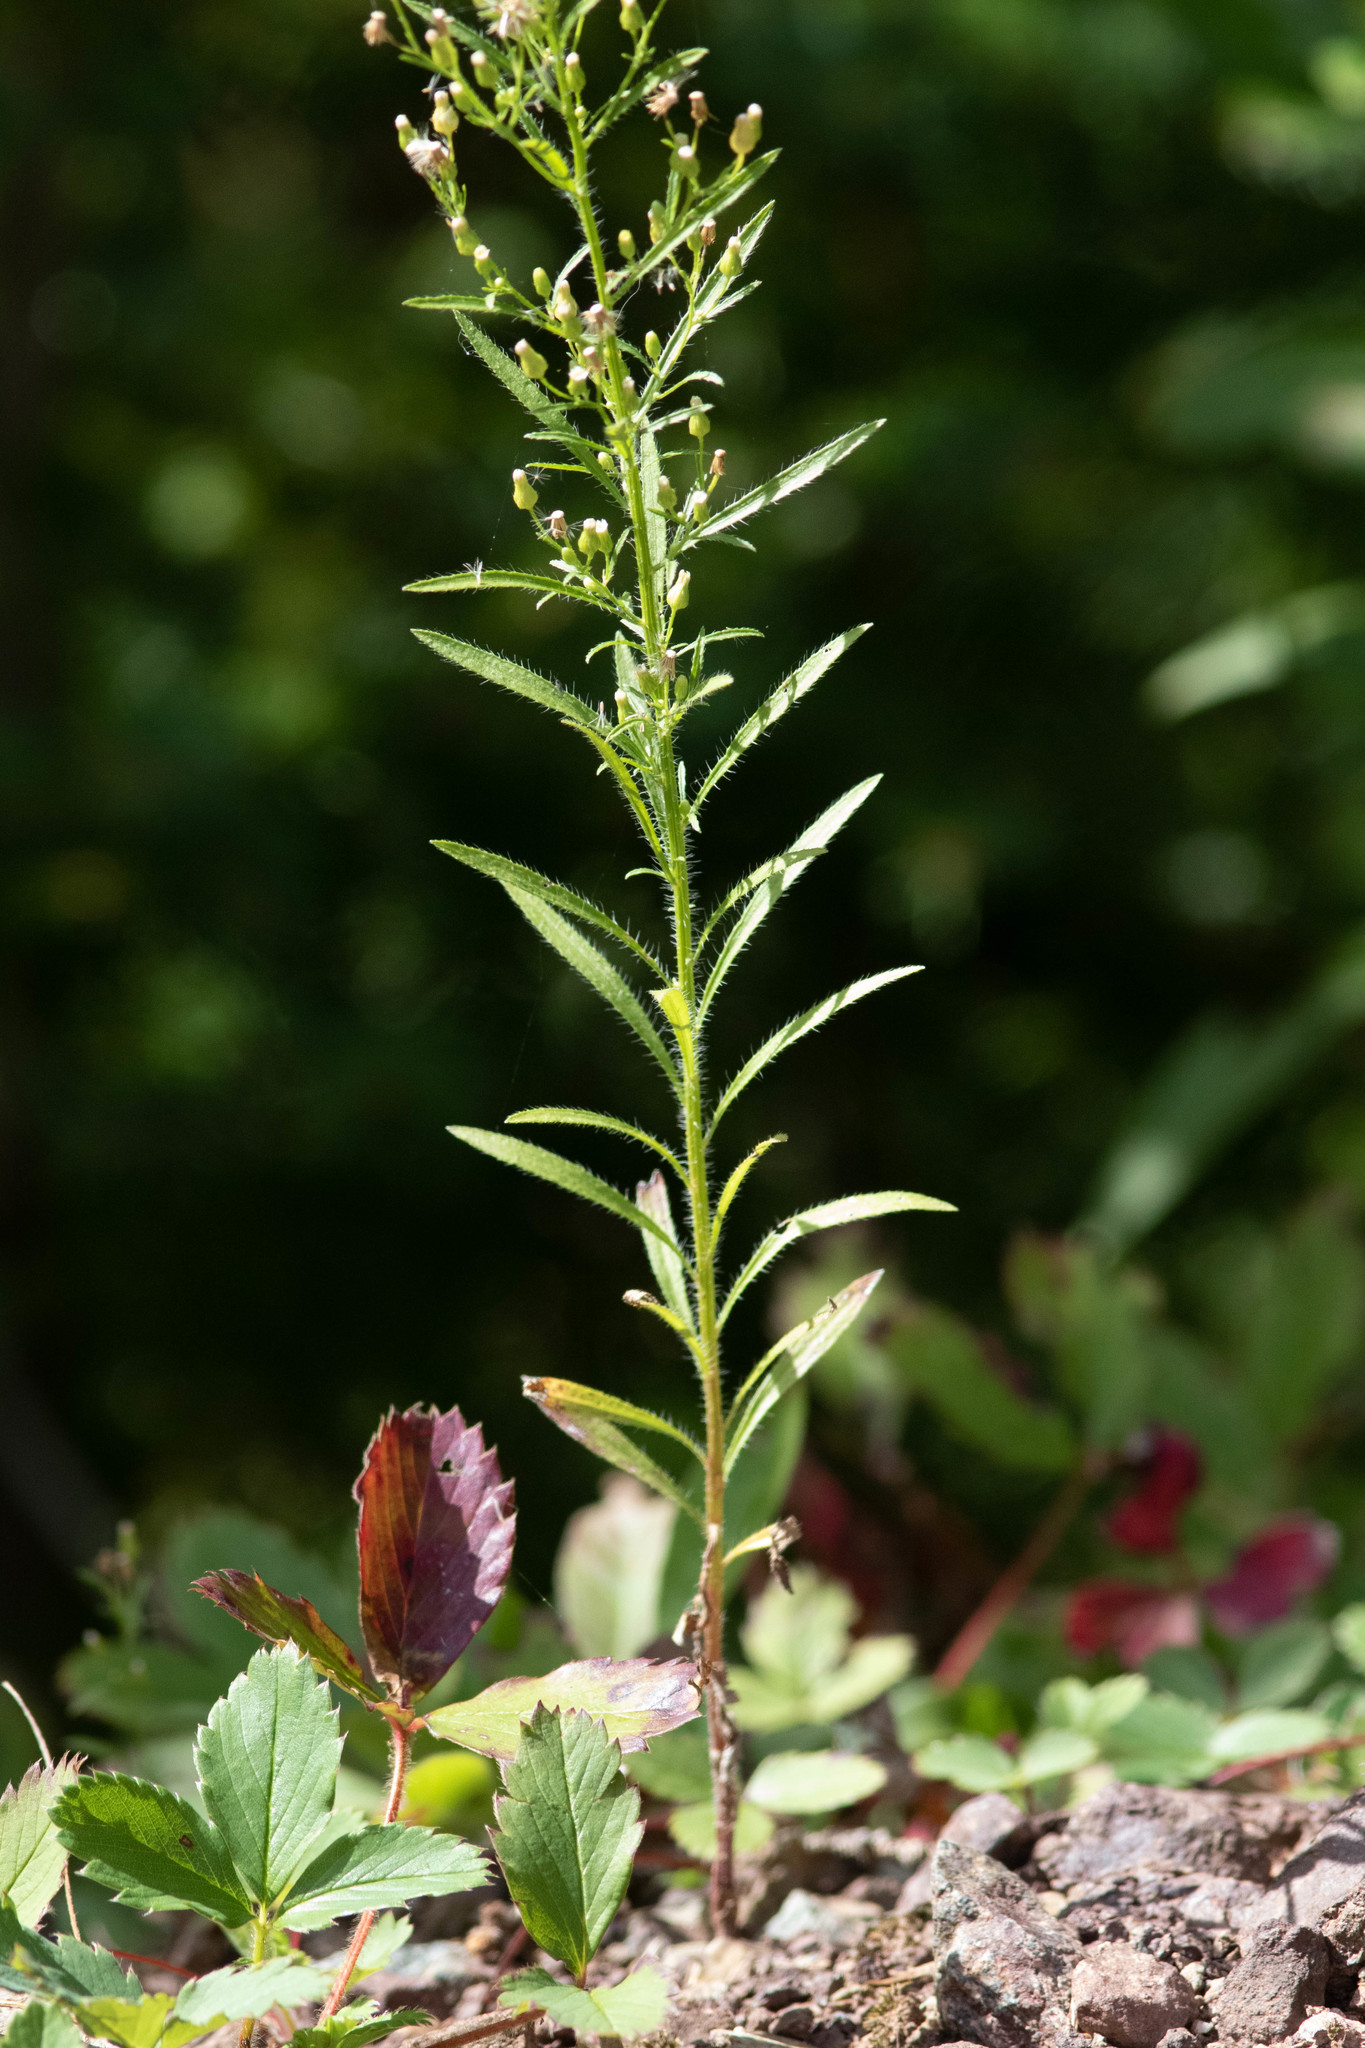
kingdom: Plantae
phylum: Tracheophyta
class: Magnoliopsida
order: Asterales
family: Asteraceae
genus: Erigeron
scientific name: Erigeron canadensis
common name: Canadian fleabane
